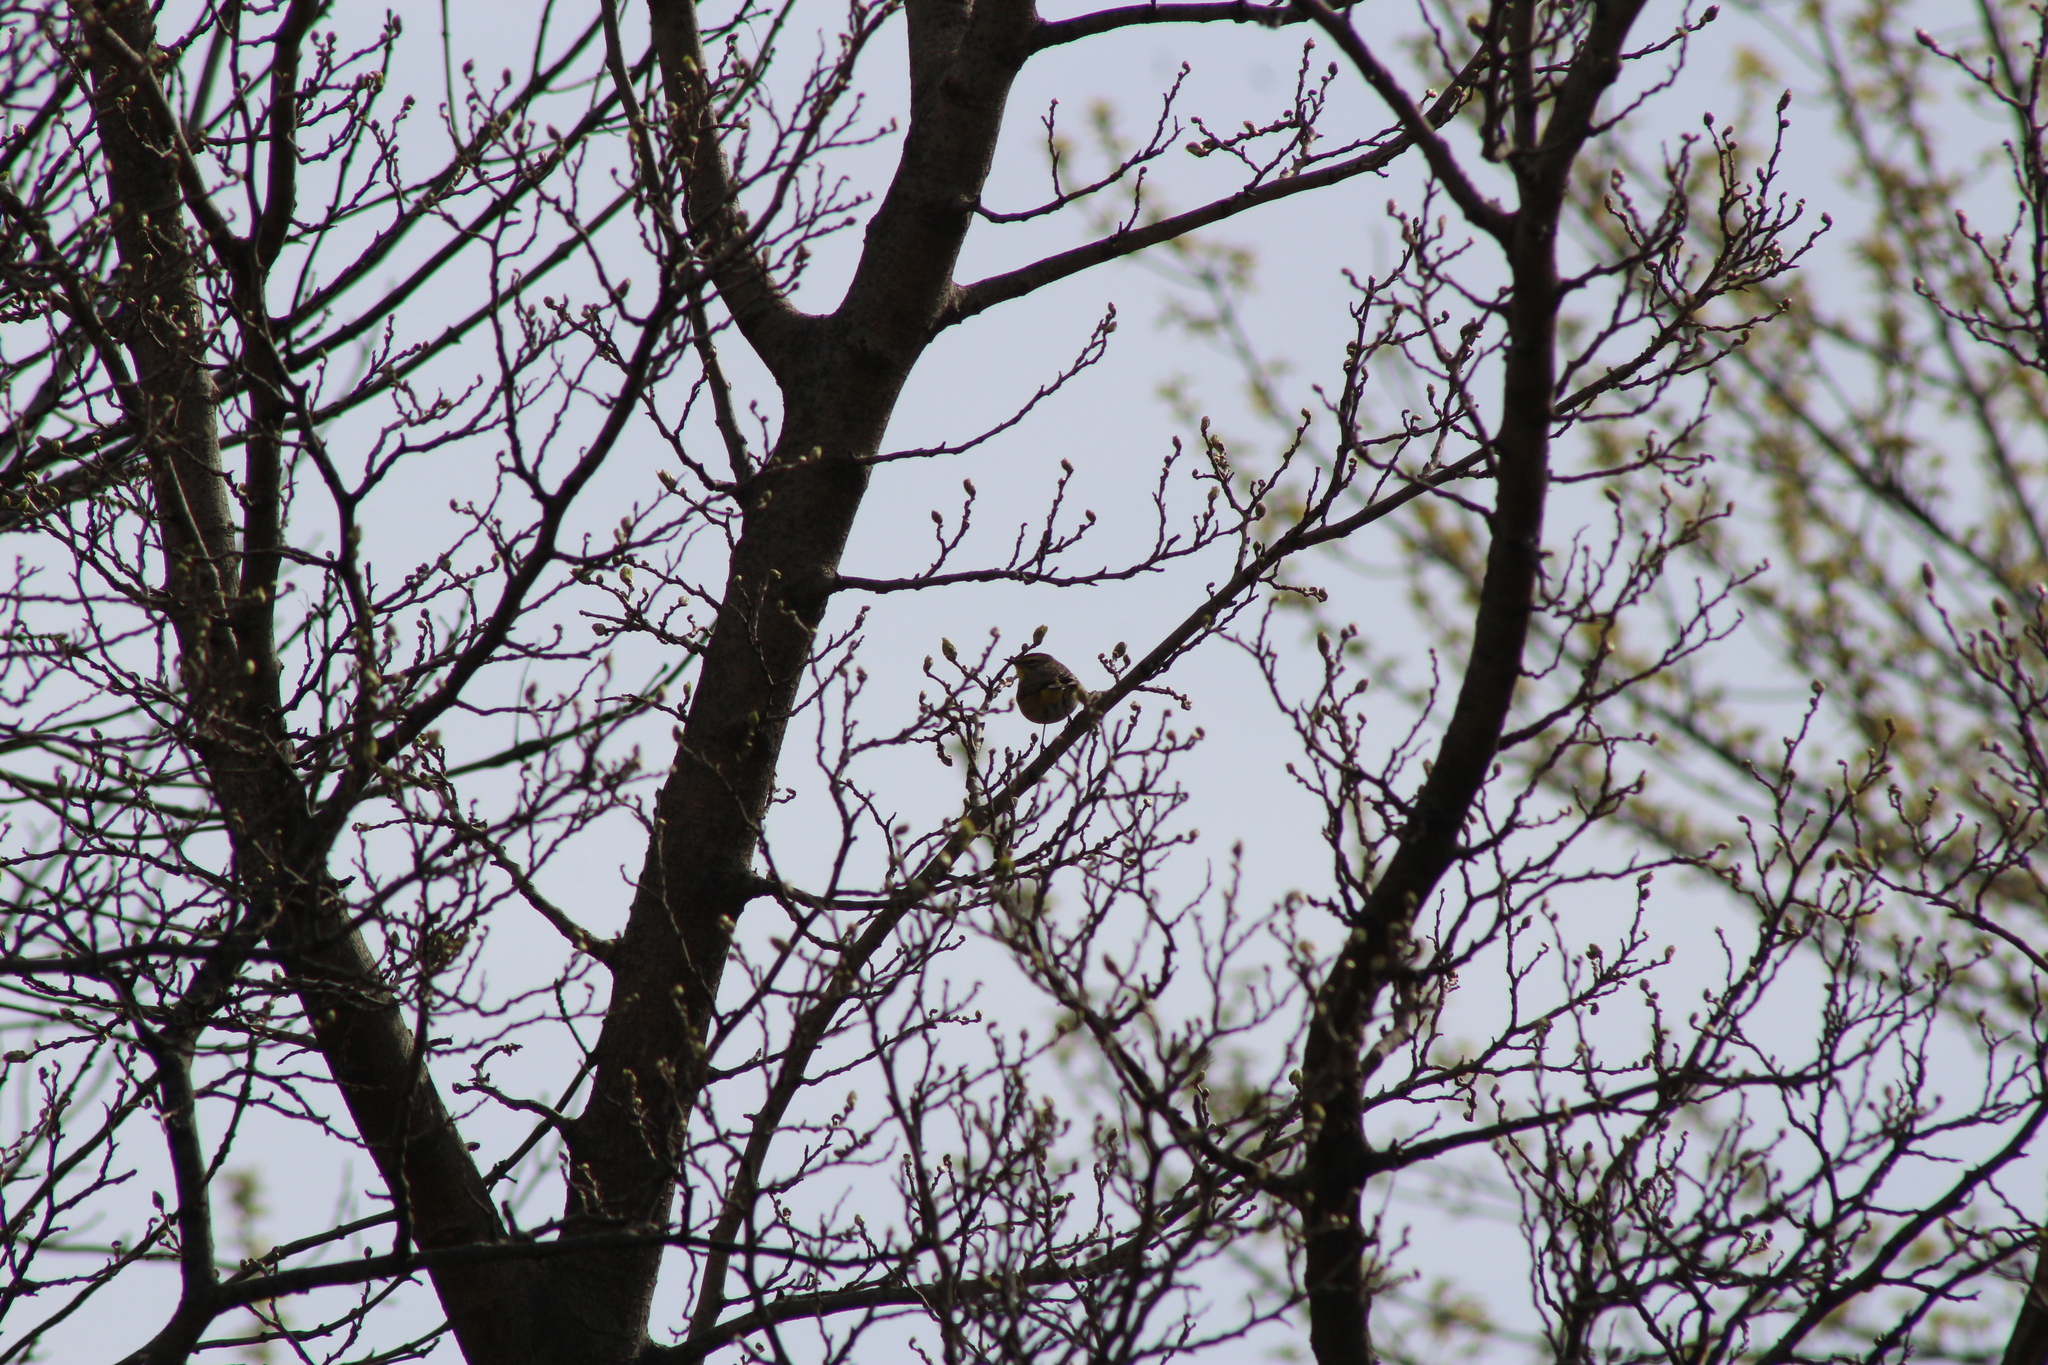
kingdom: Animalia
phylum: Chordata
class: Aves
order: Passeriformes
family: Parulidae
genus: Setophaga
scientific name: Setophaga palmarum
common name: Palm warbler
